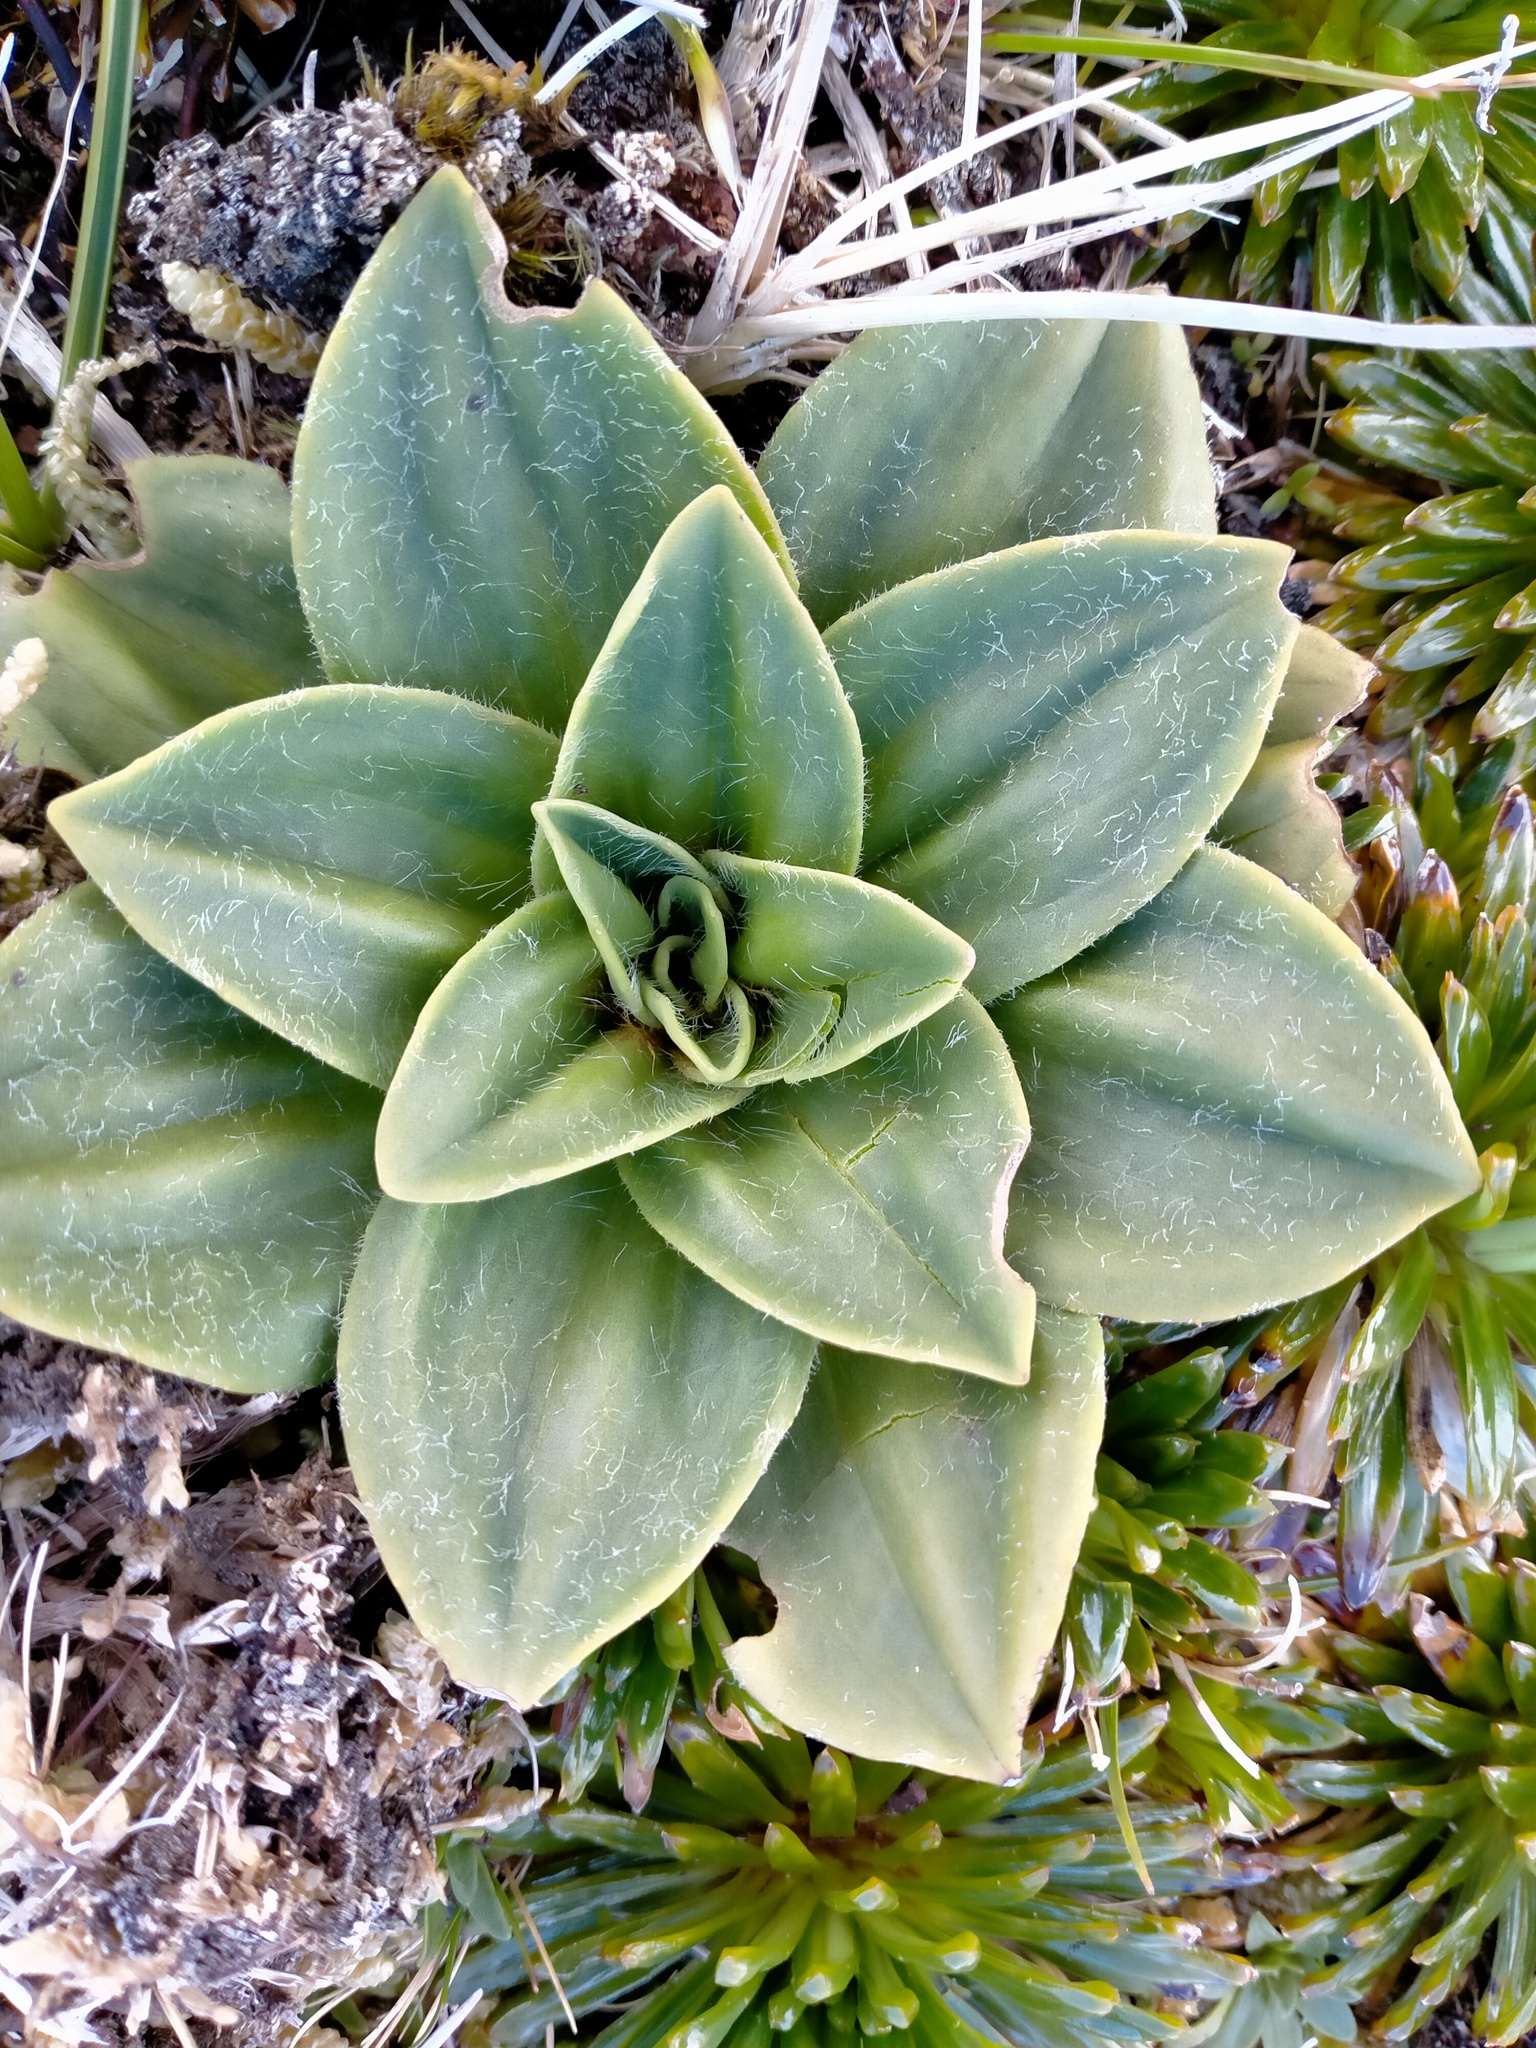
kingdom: Plantae
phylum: Tracheophyta
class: Magnoliopsida
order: Lamiales
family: Plantaginaceae
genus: Plantago
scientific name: Plantago aucklandica
